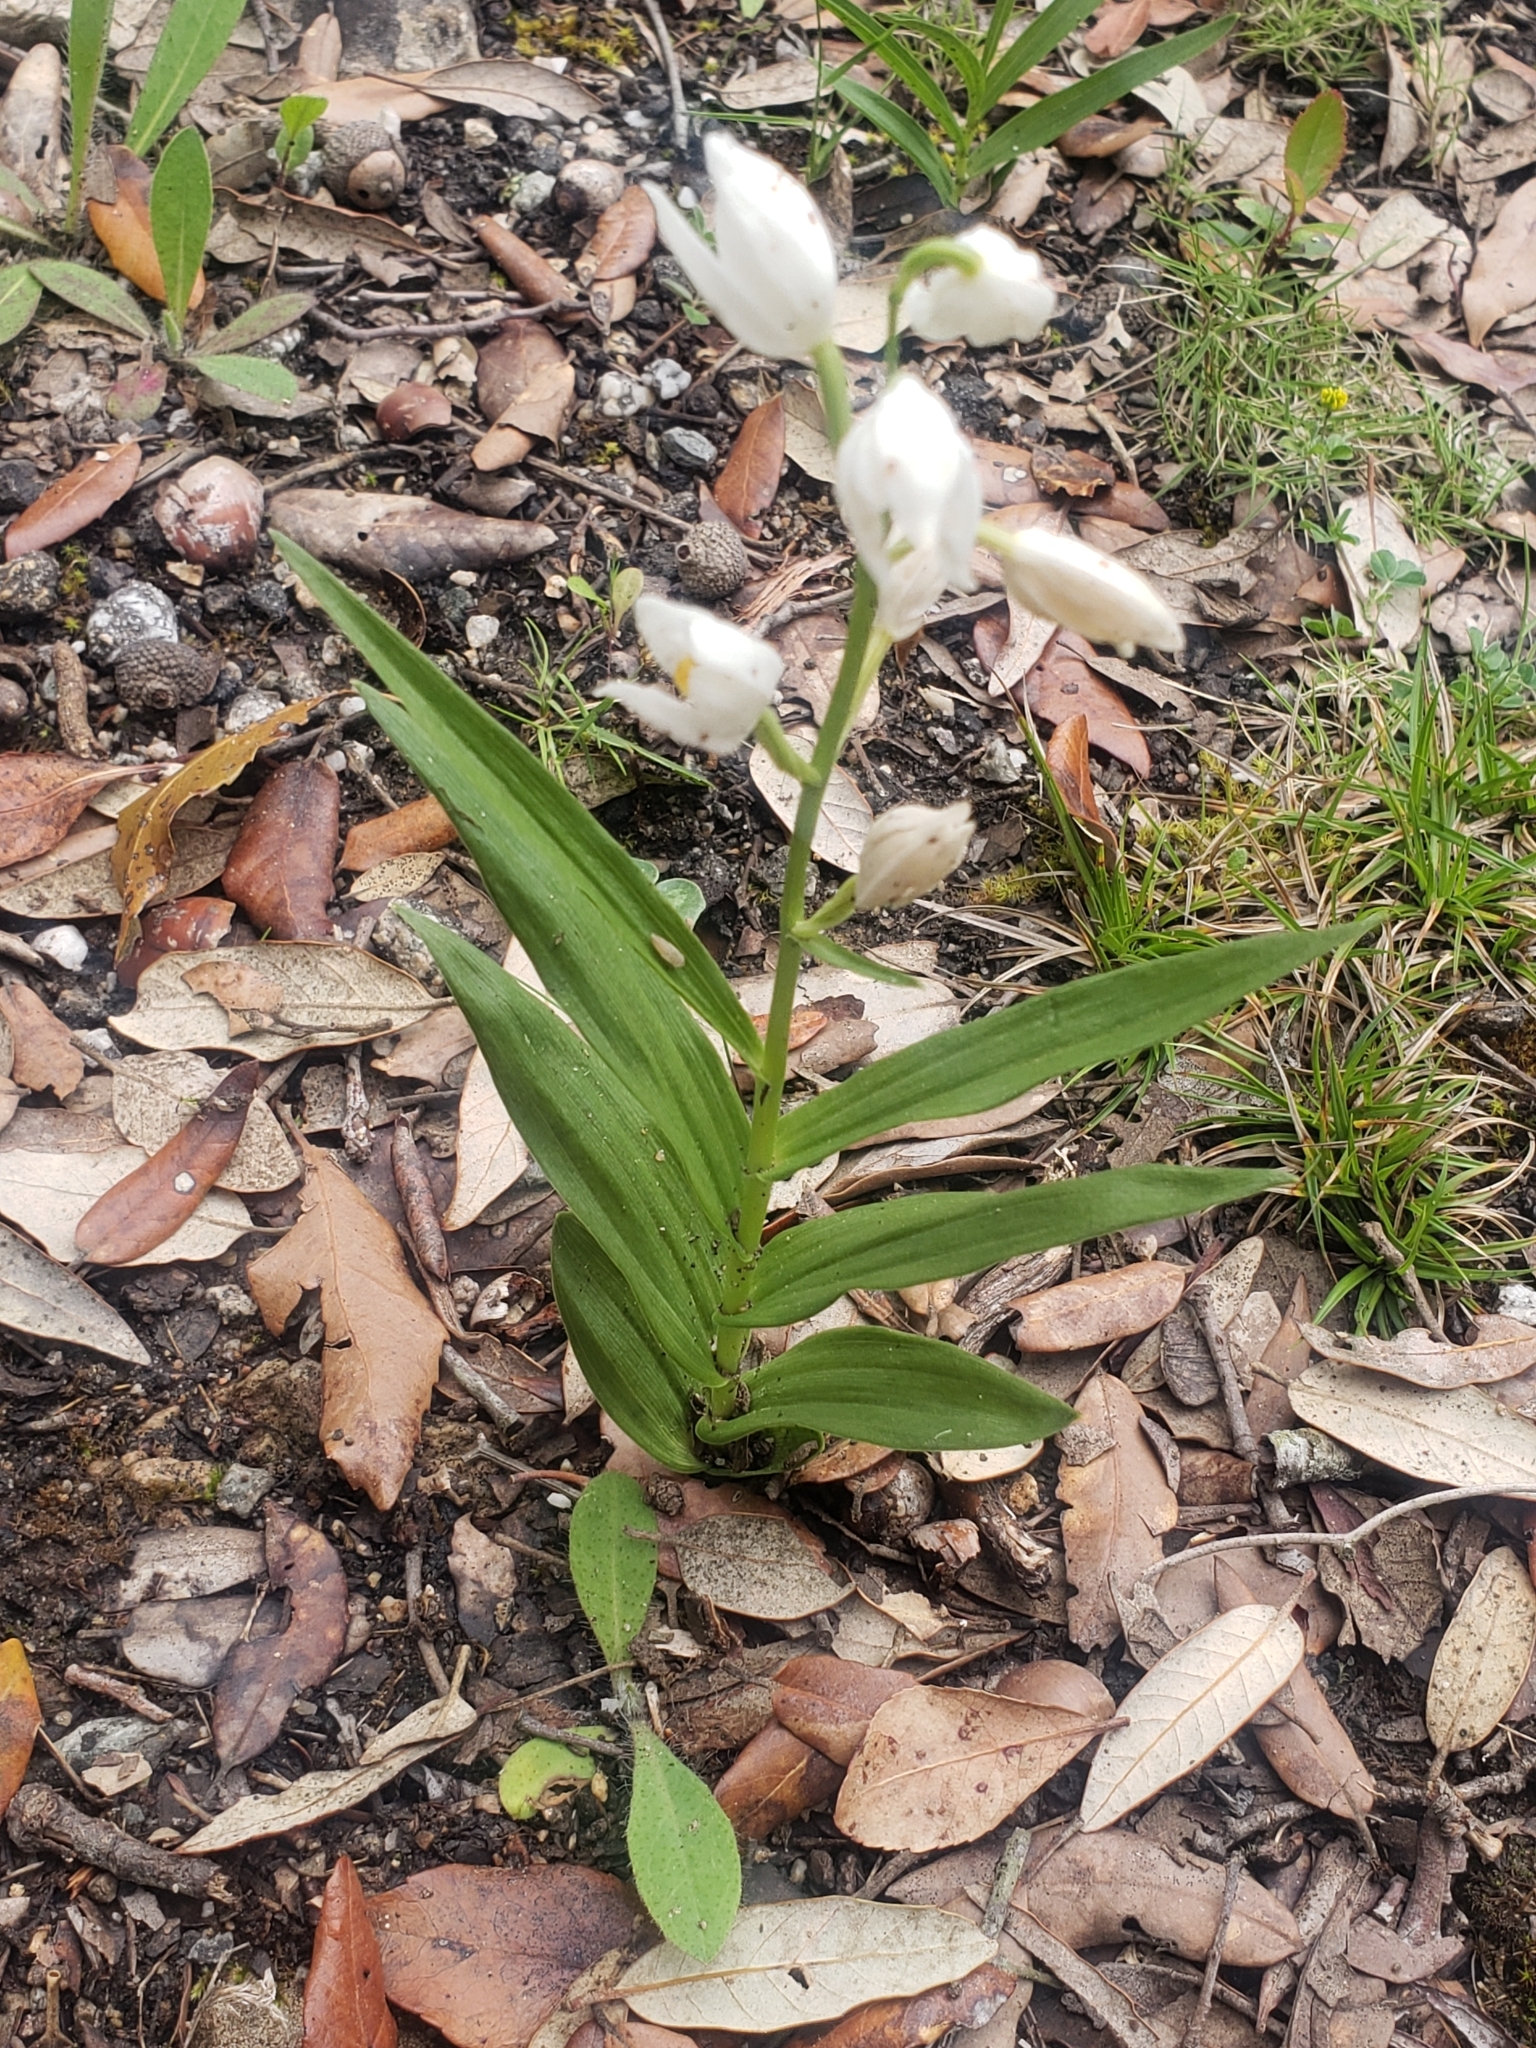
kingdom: Plantae
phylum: Tracheophyta
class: Liliopsida
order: Asparagales
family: Orchidaceae
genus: Cephalanthera
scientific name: Cephalanthera longifolia
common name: Narrow-leaved helleborine
